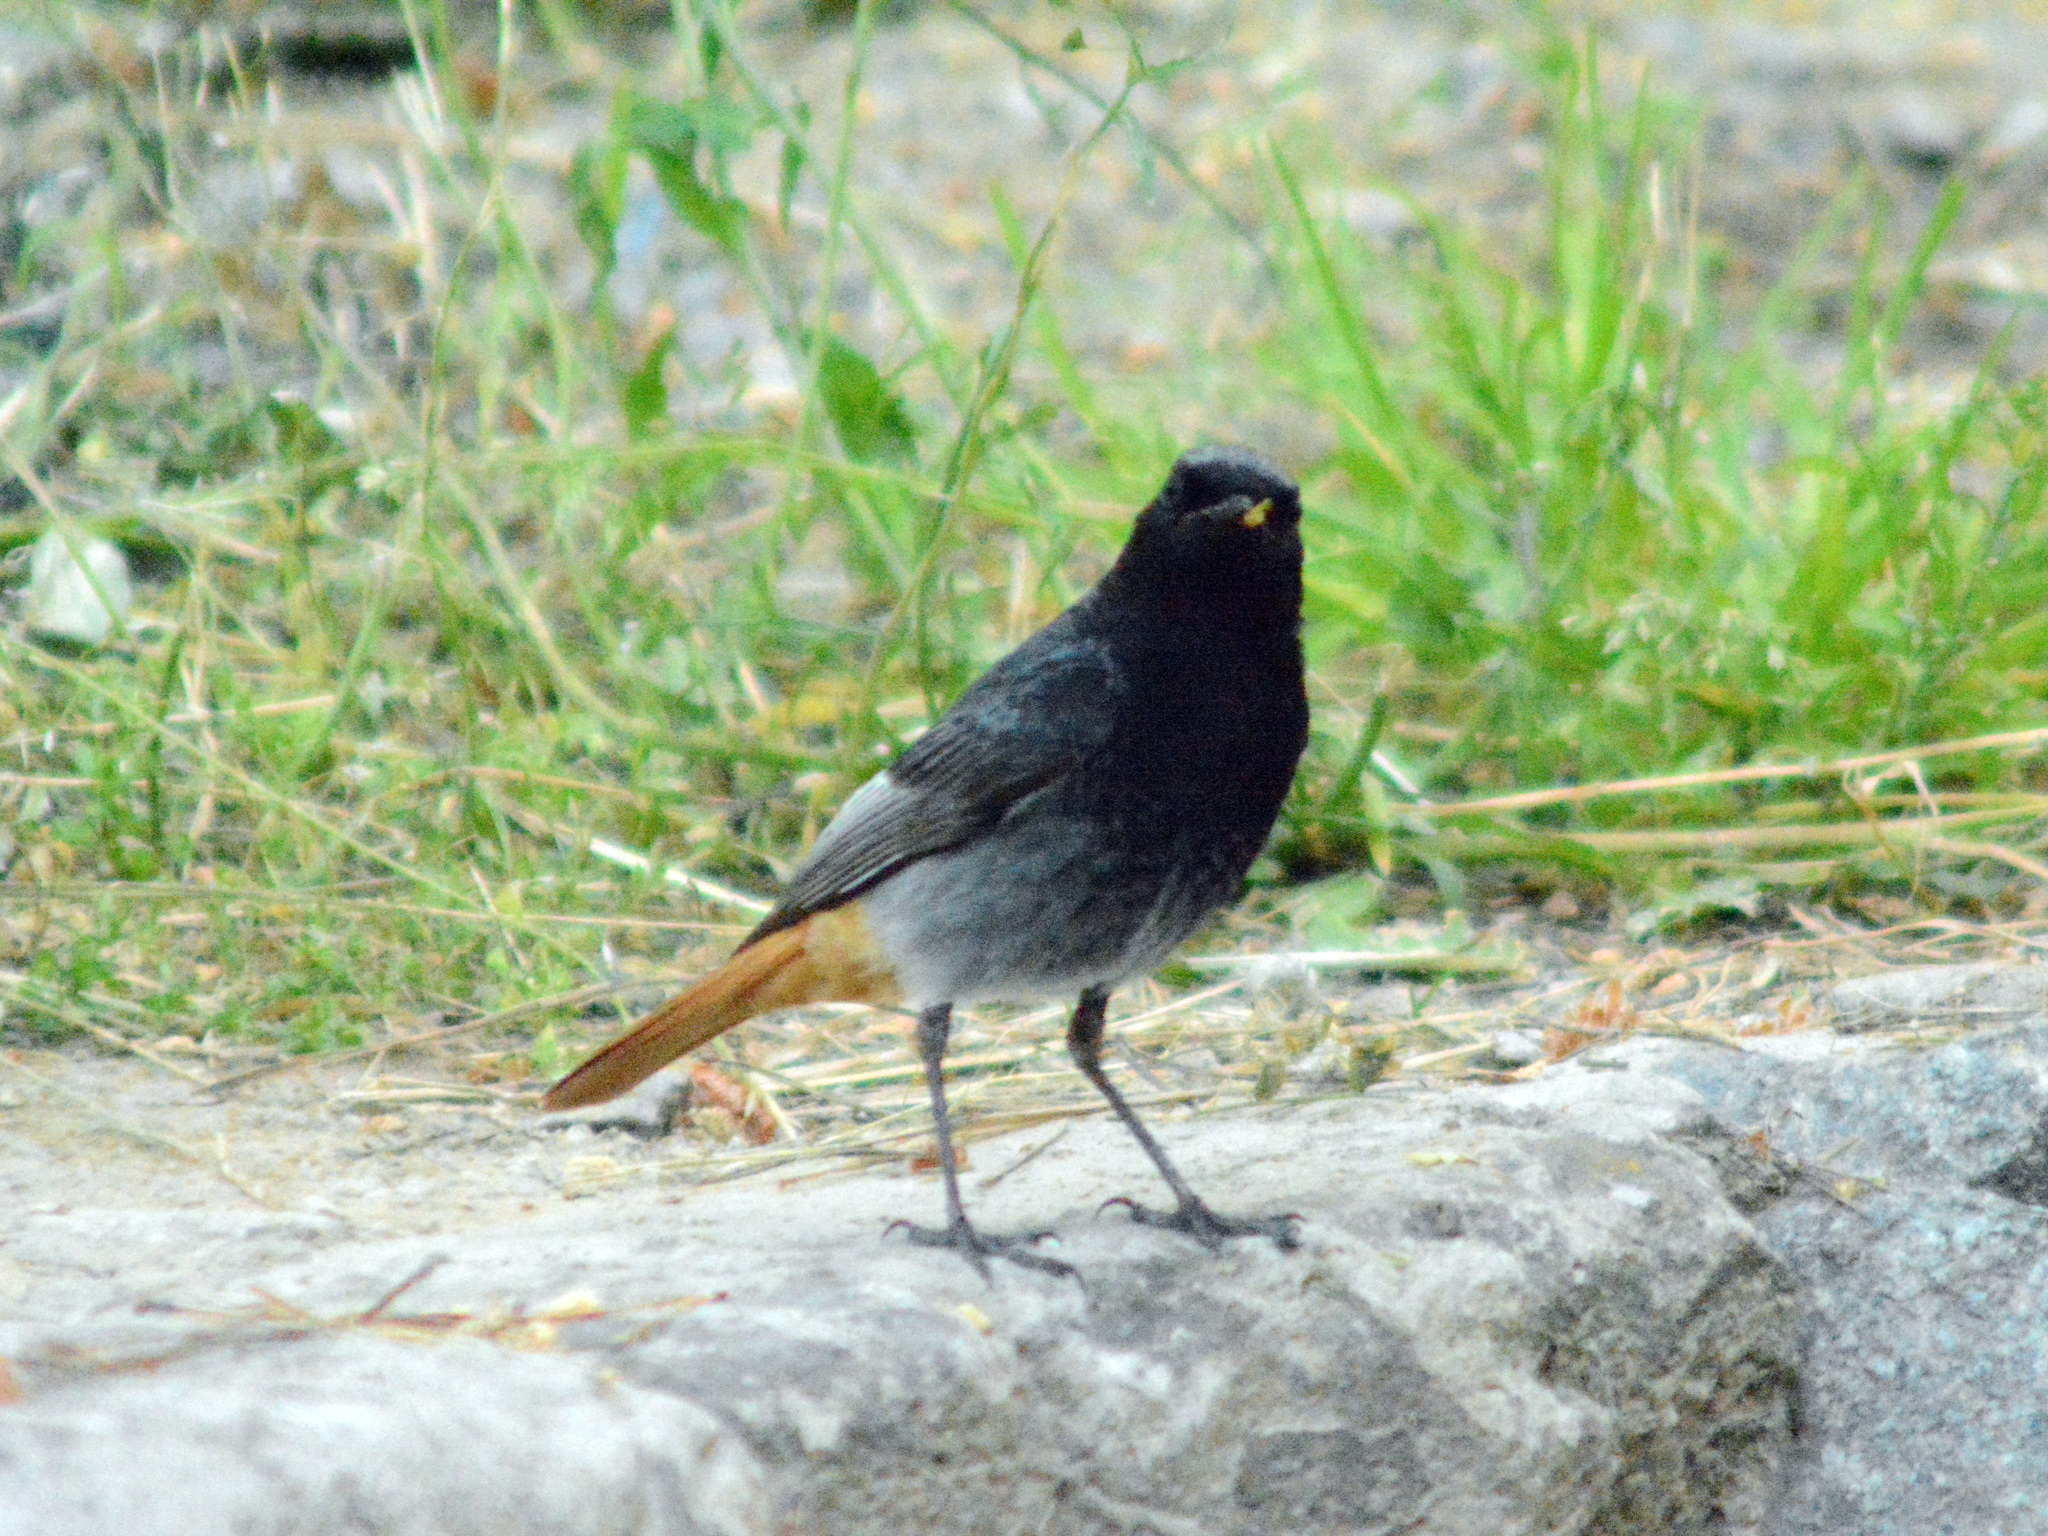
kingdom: Animalia
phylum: Chordata
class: Aves
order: Passeriformes
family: Muscicapidae
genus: Phoenicurus
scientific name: Phoenicurus ochruros
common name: Black redstart
